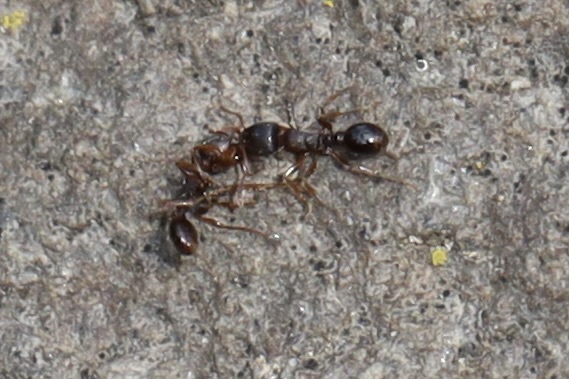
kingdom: Animalia
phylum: Arthropoda
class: Insecta
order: Hymenoptera
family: Formicidae
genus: Tetramorium
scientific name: Tetramorium immigrans
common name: Pavement ant
